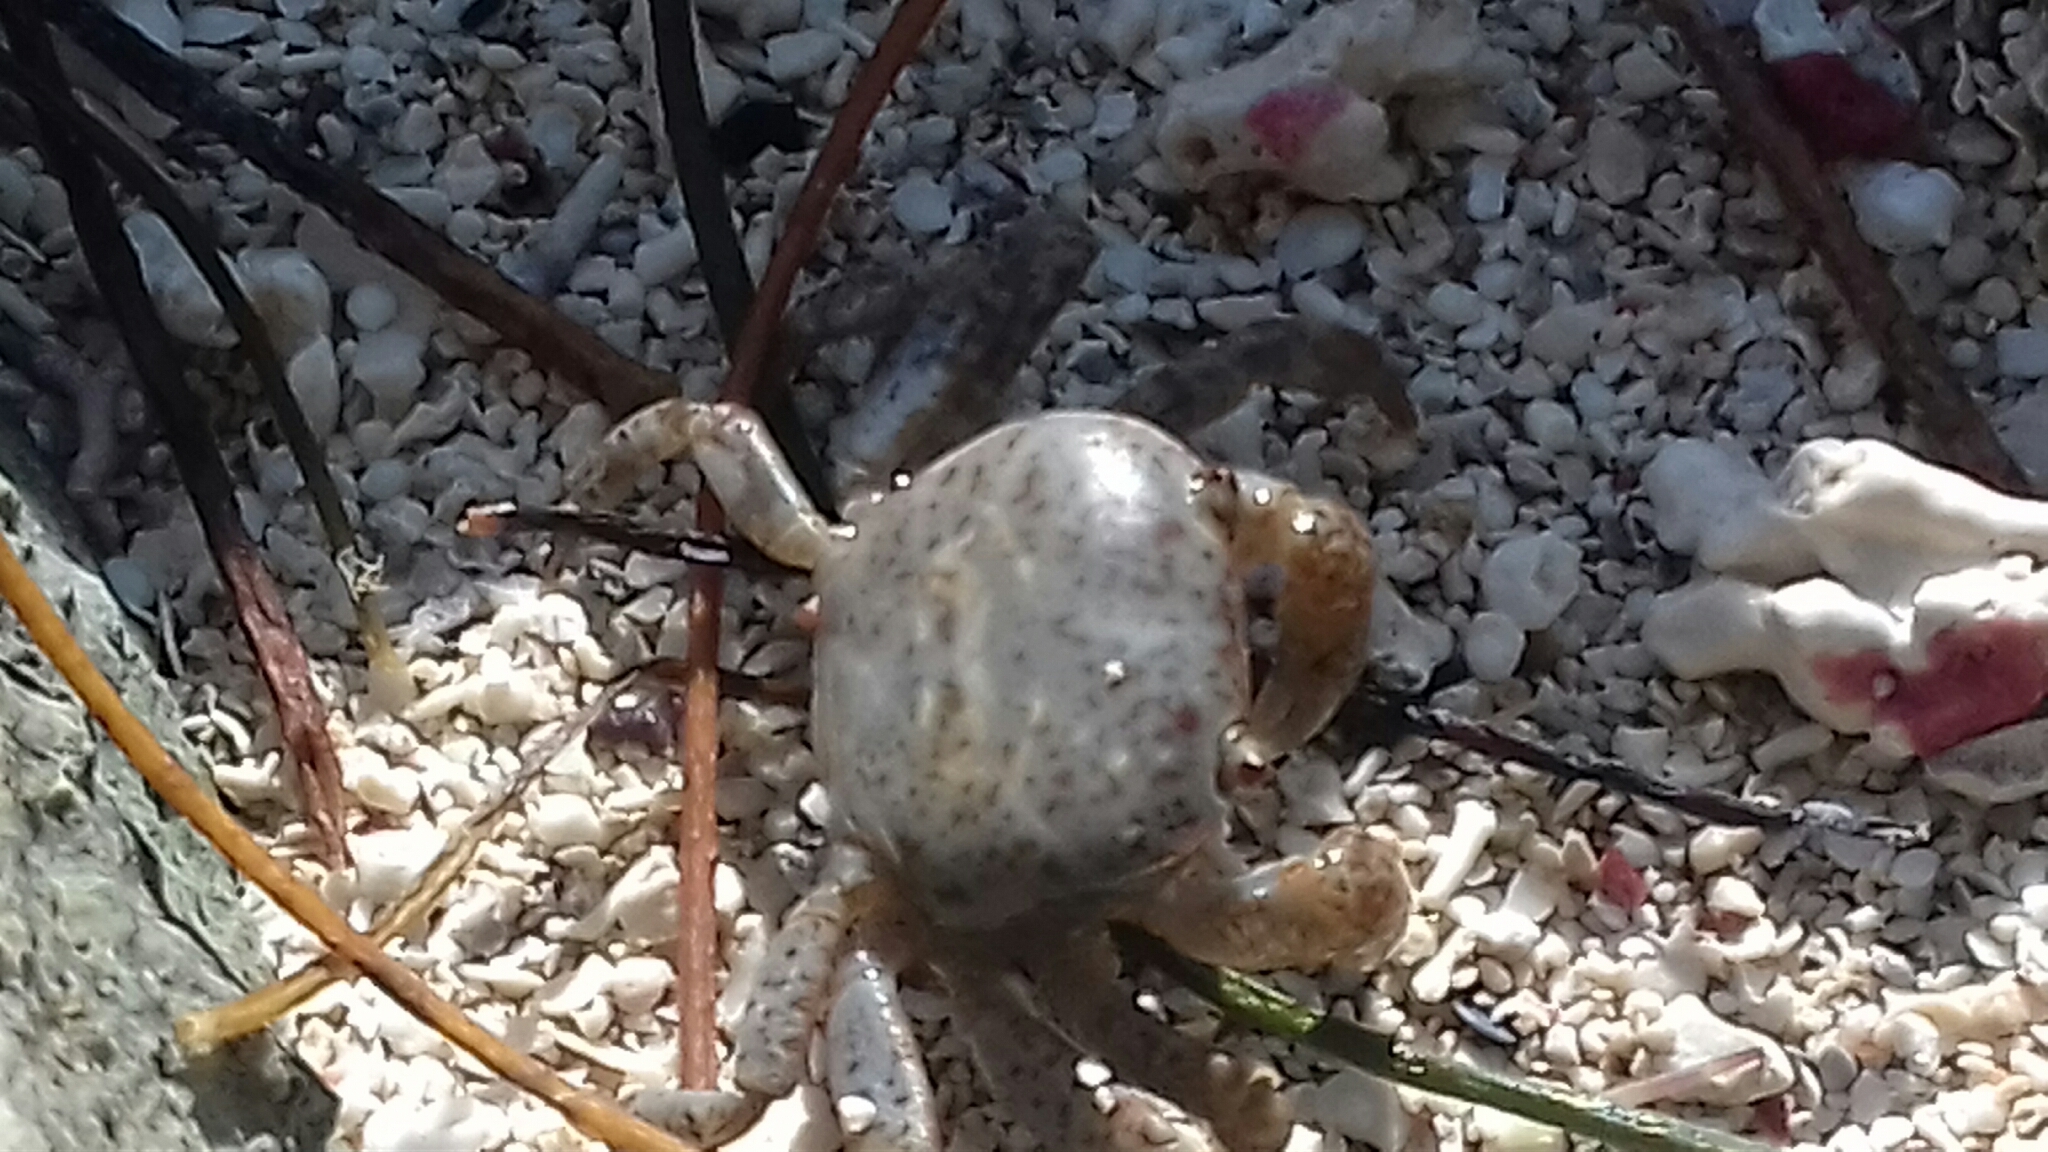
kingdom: Animalia
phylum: Arthropoda
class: Malacostraca
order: Decapoda
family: Varunidae
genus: Cyclograpsus
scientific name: Cyclograpsus integer
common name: Globose shore crab
